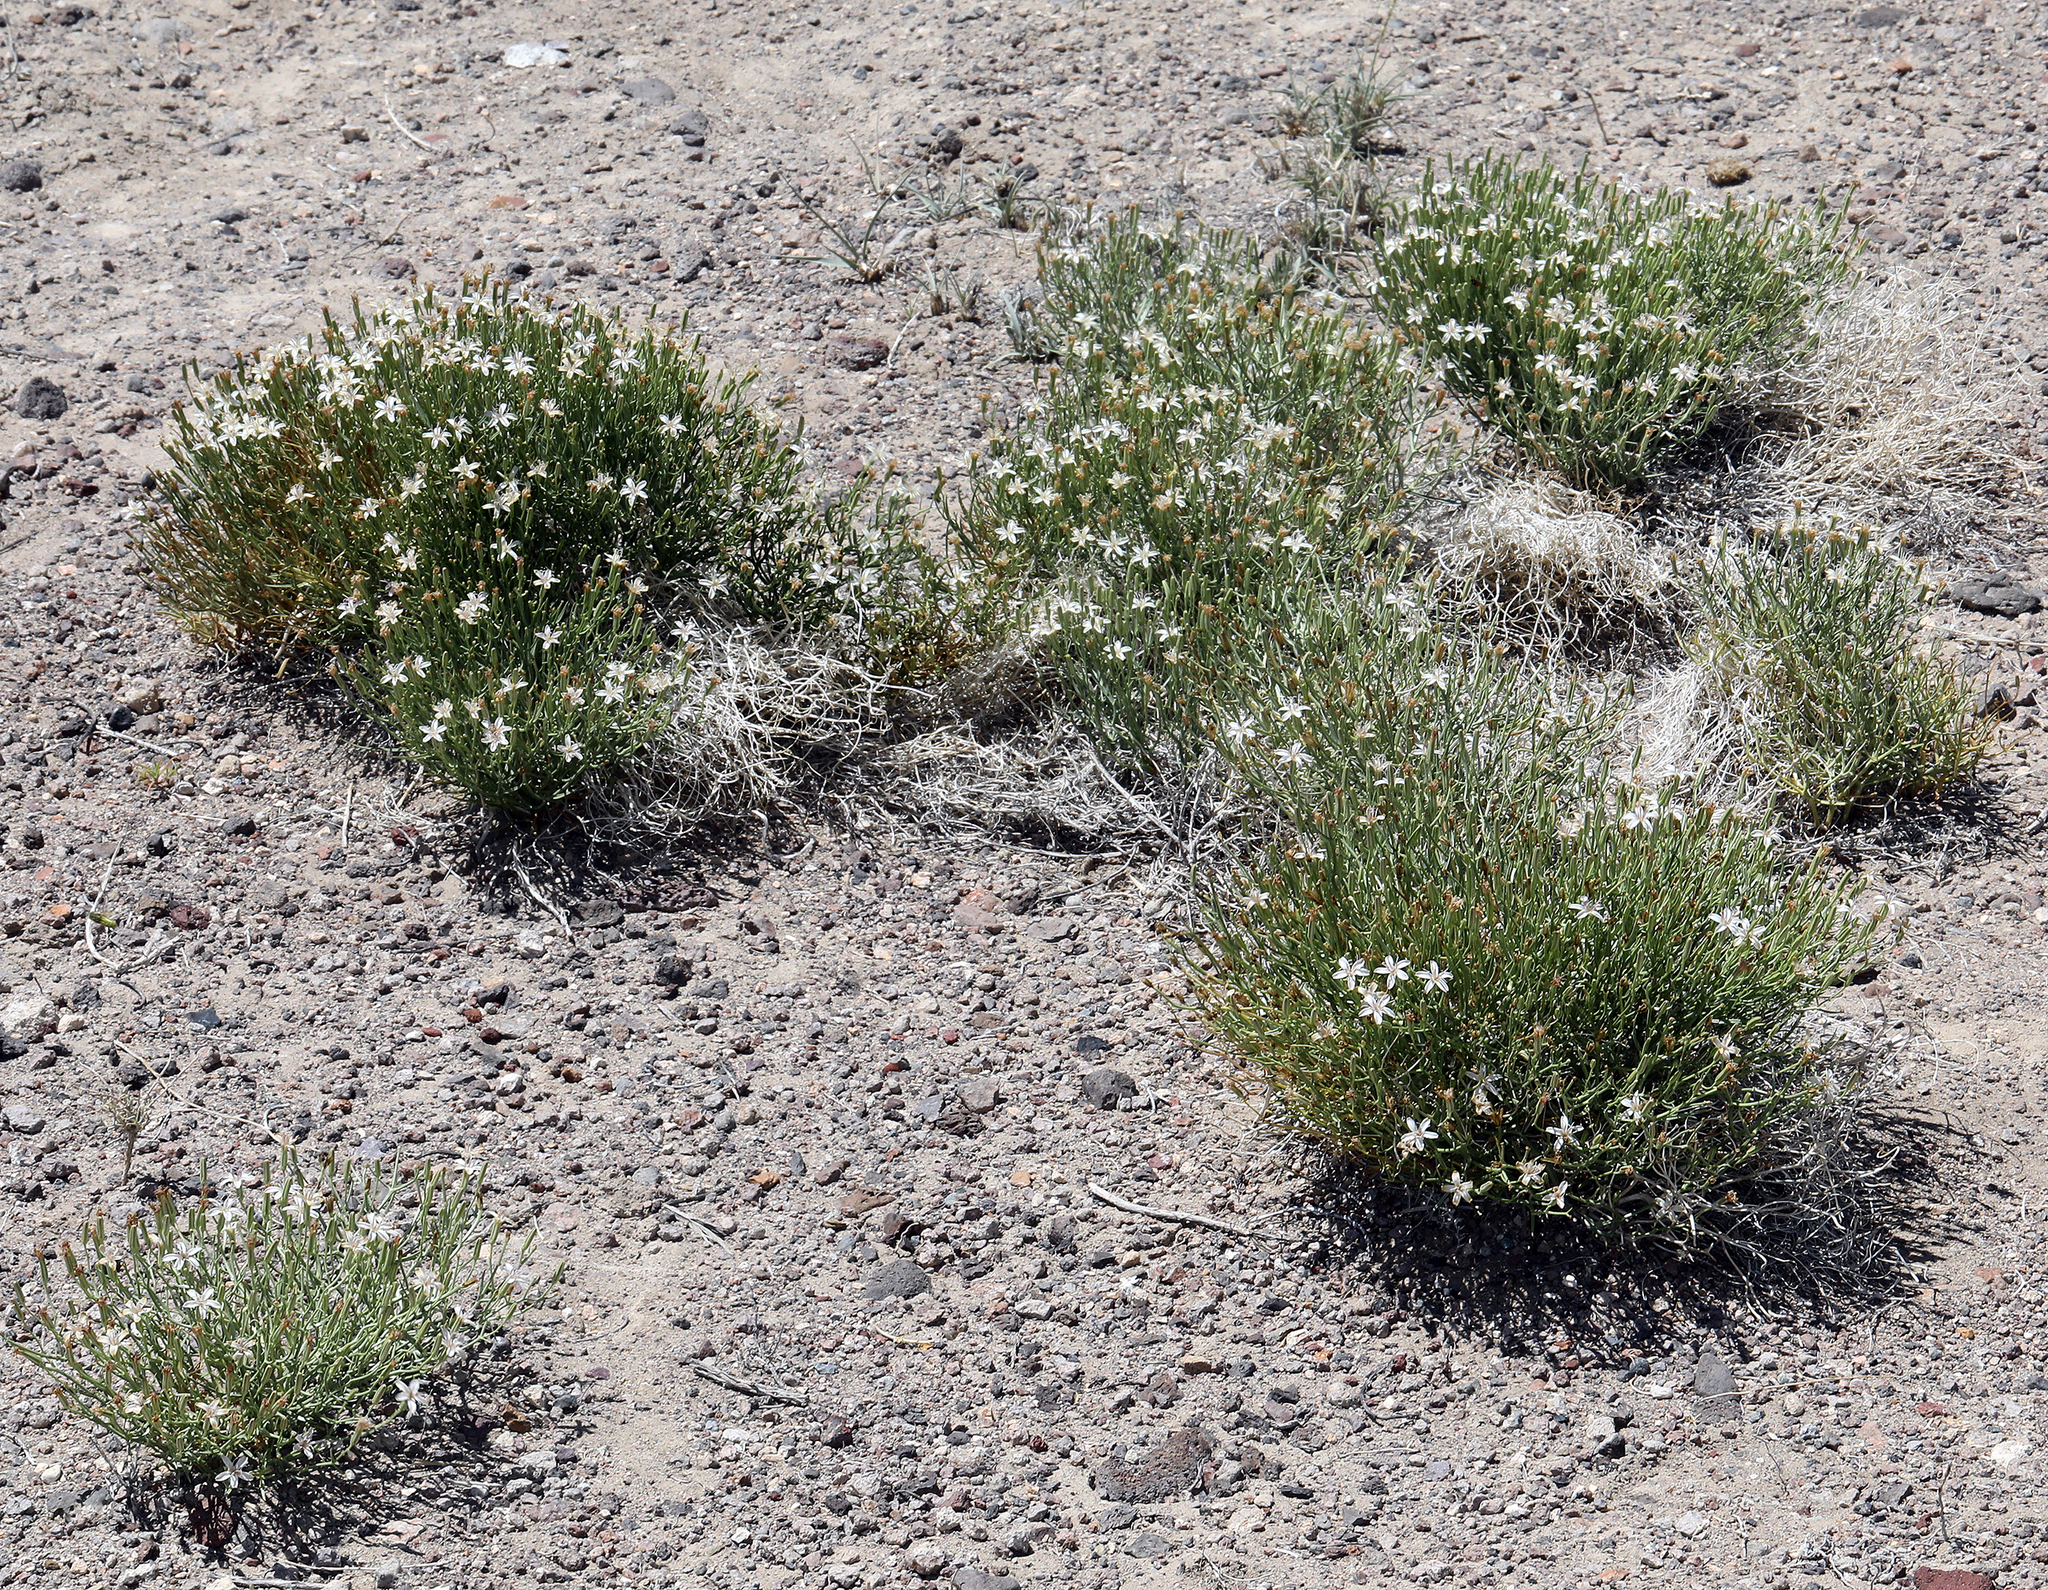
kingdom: Plantae
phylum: Tracheophyta
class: Magnoliopsida
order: Asterales
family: Asteraceae
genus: Chaetadelpha
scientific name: Chaetadelpha wheeleri
